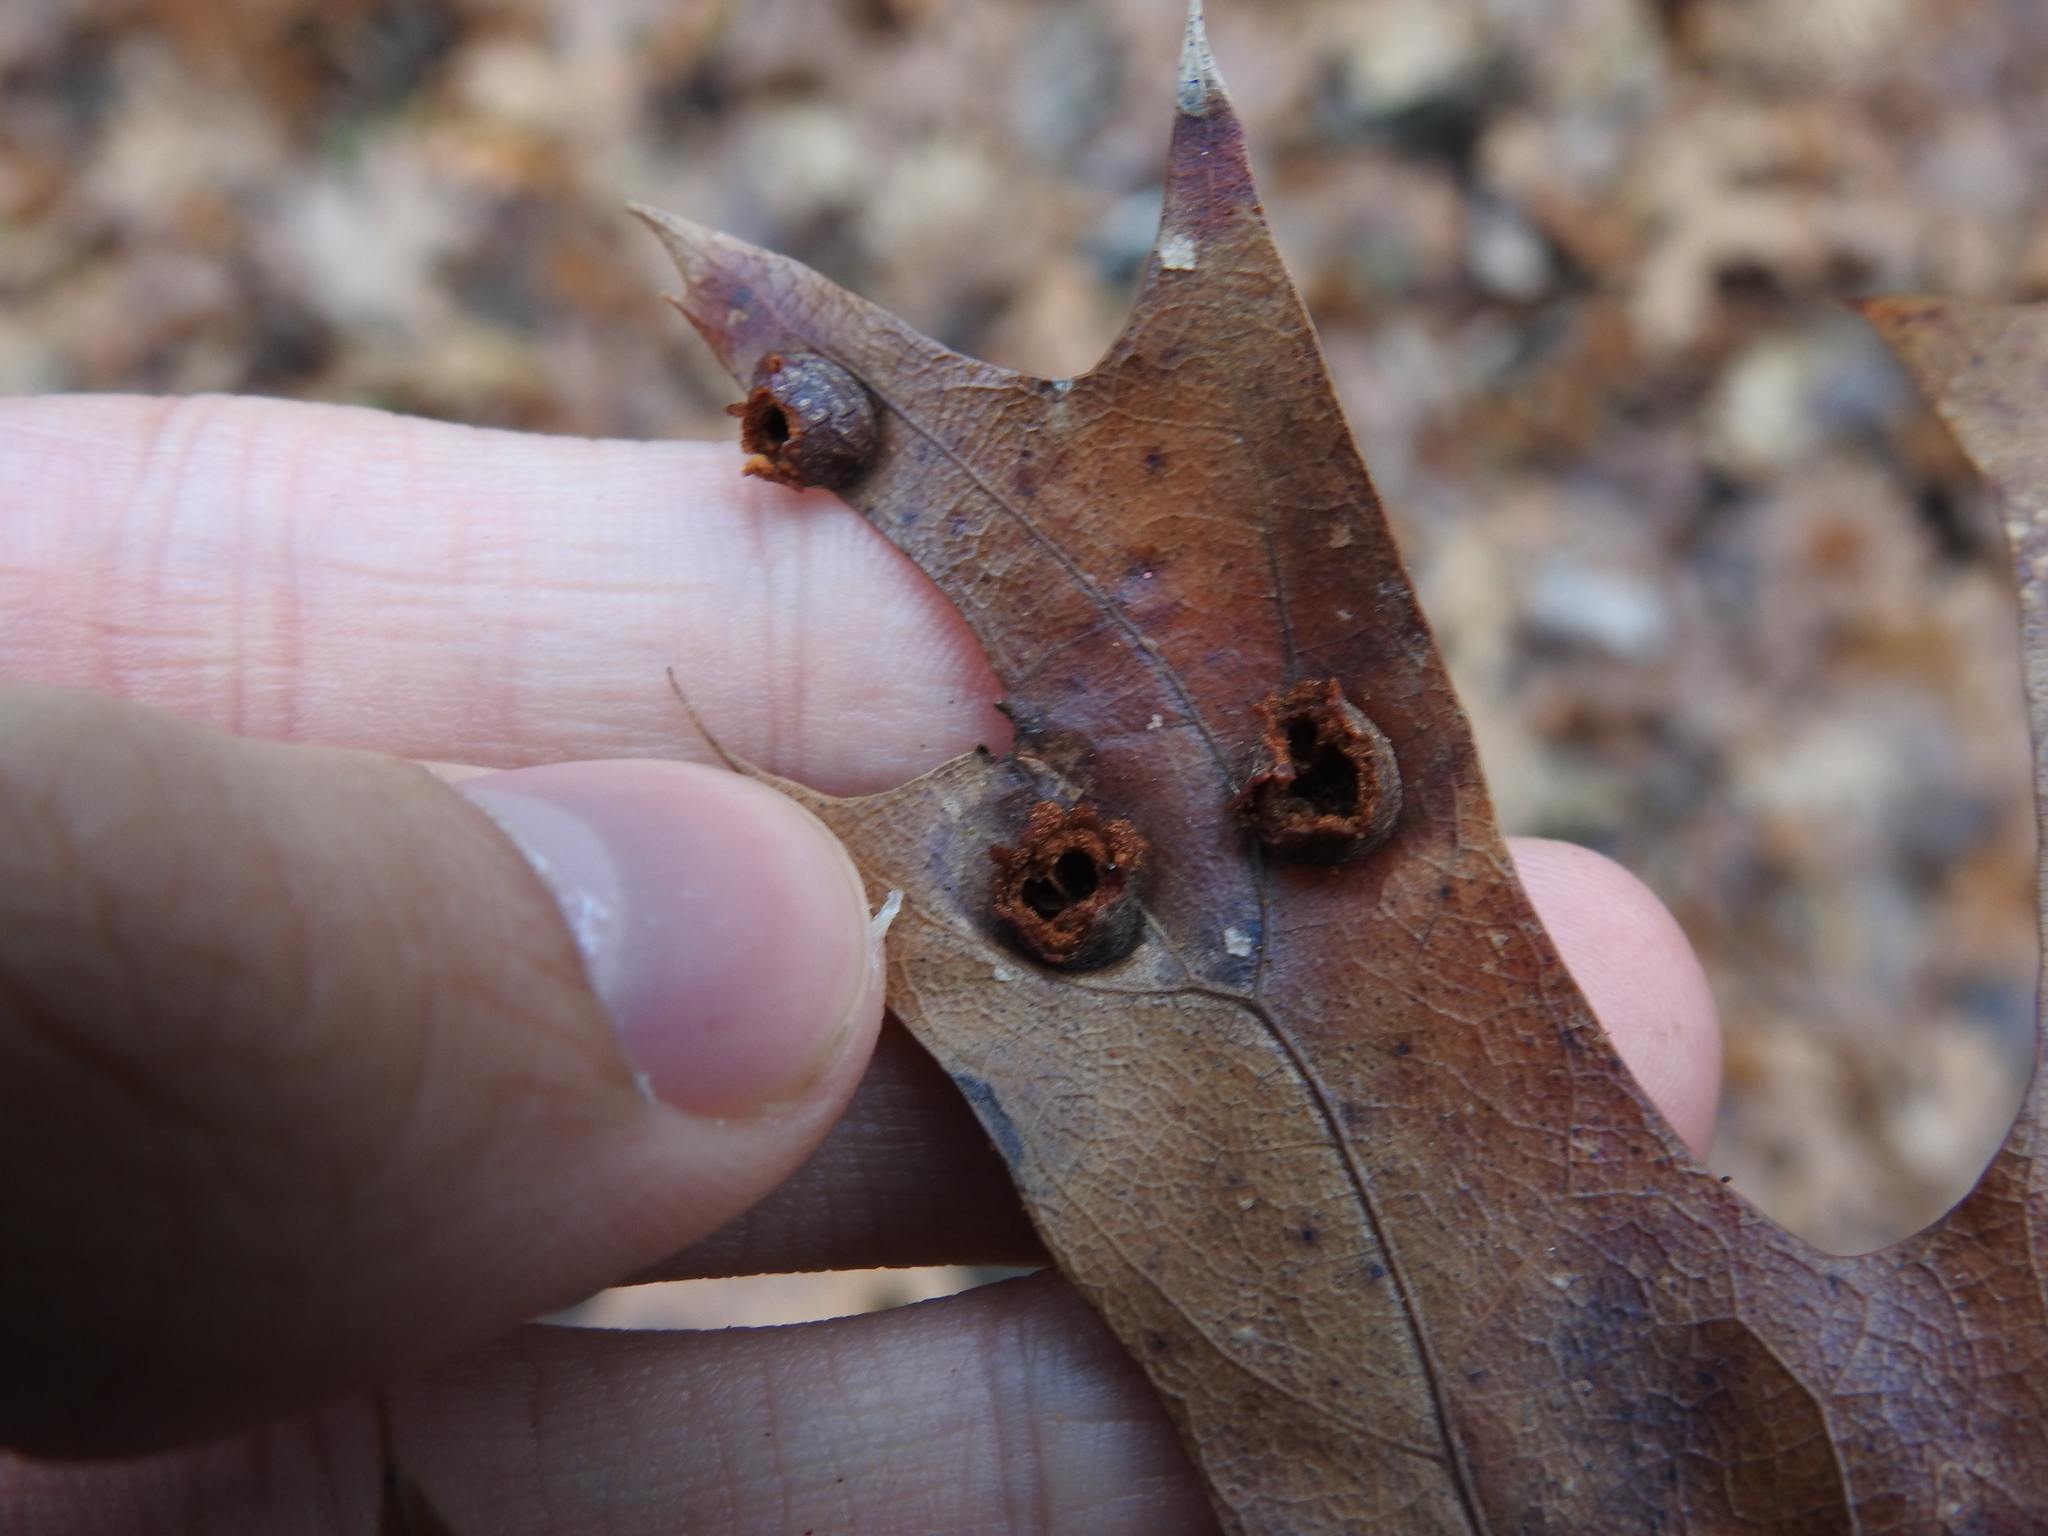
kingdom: Animalia
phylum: Arthropoda
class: Insecta
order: Diptera
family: Cecidomyiidae
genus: Polystepha
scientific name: Polystepha pilulae
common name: Oak leaf gall midge
